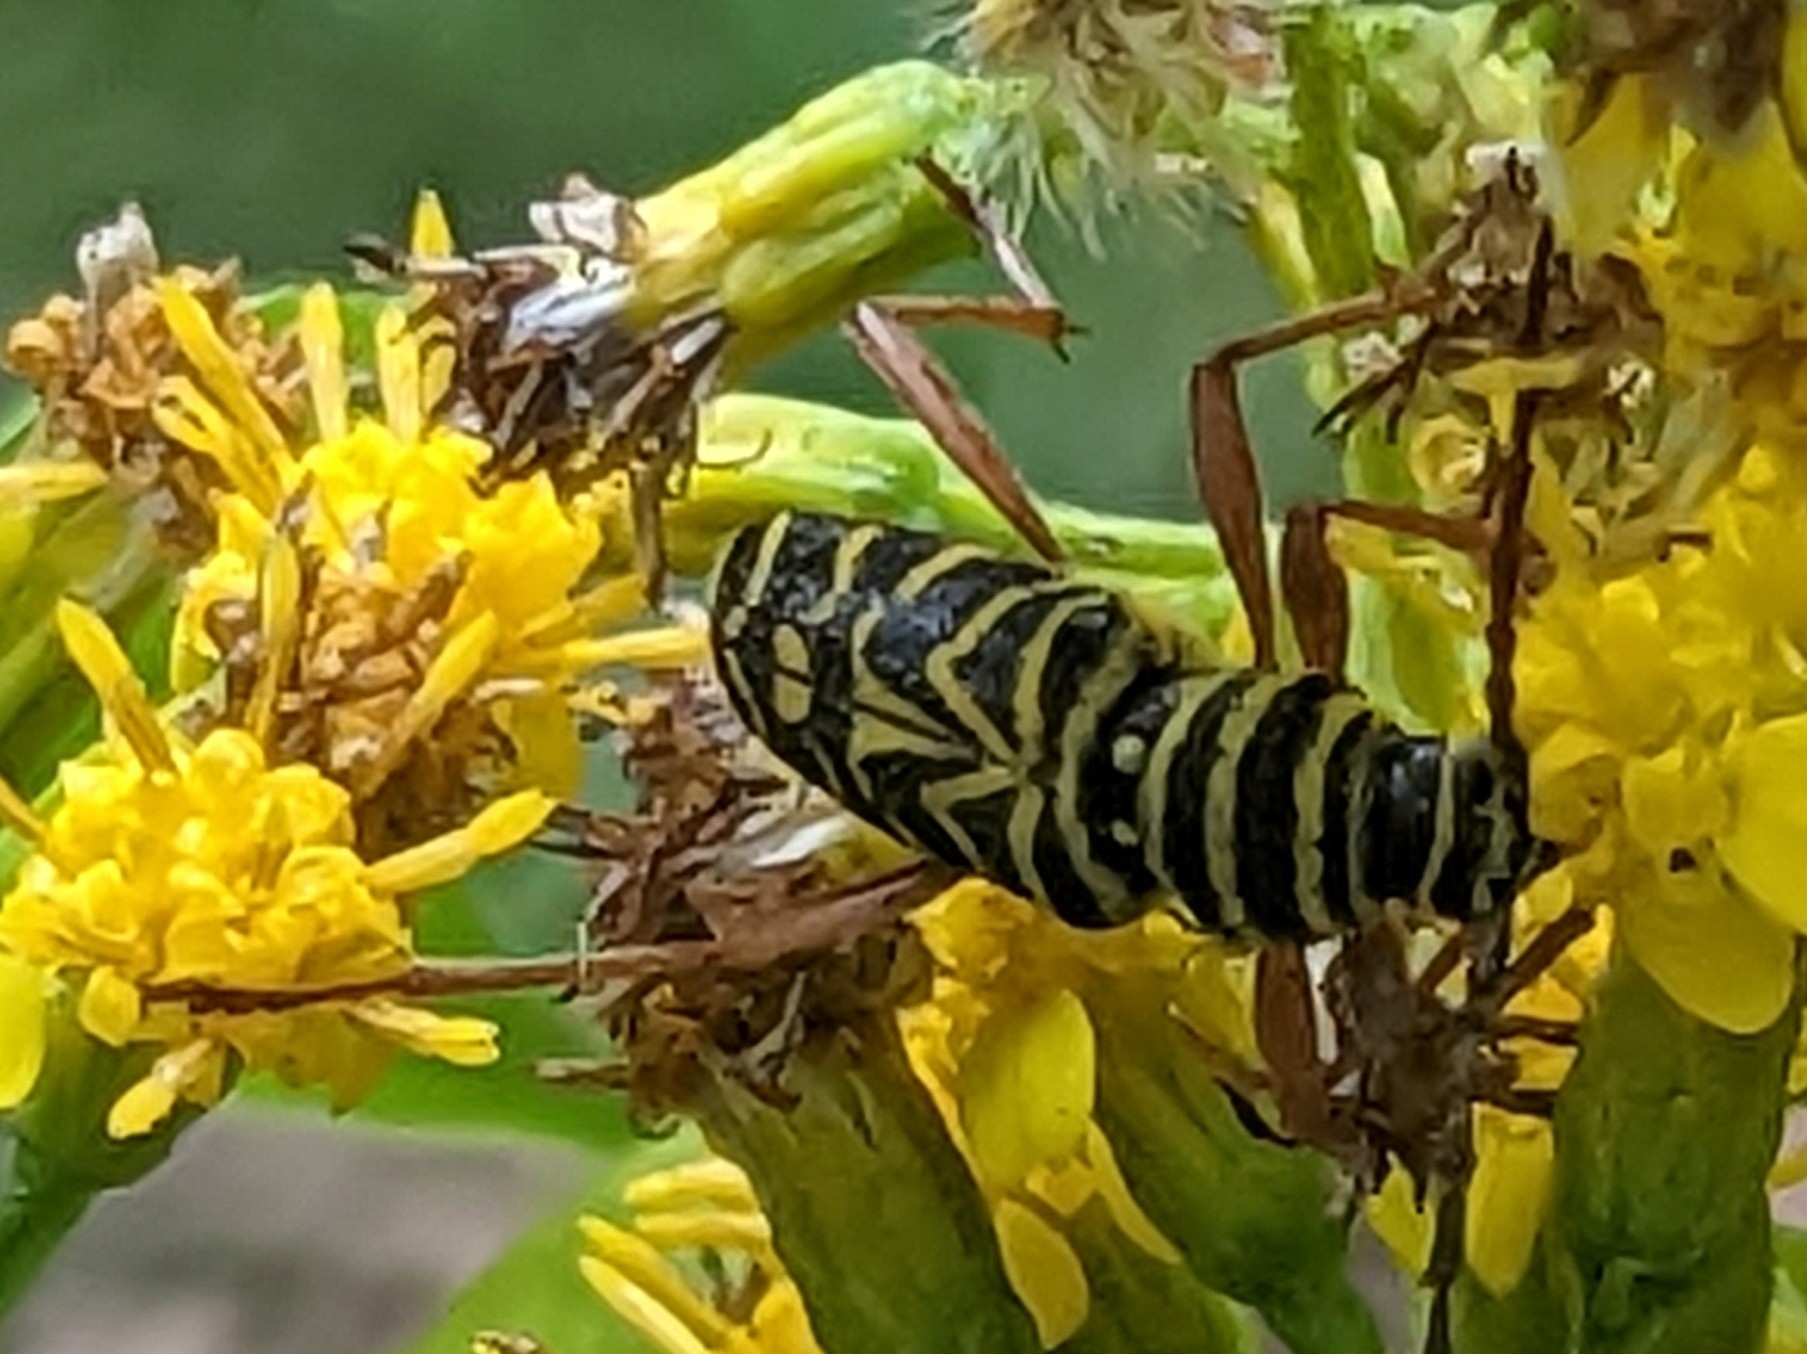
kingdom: Animalia
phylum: Arthropoda
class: Insecta
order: Coleoptera
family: Cerambycidae
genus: Megacyllene
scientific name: Megacyllene robiniae
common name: Locust borer
